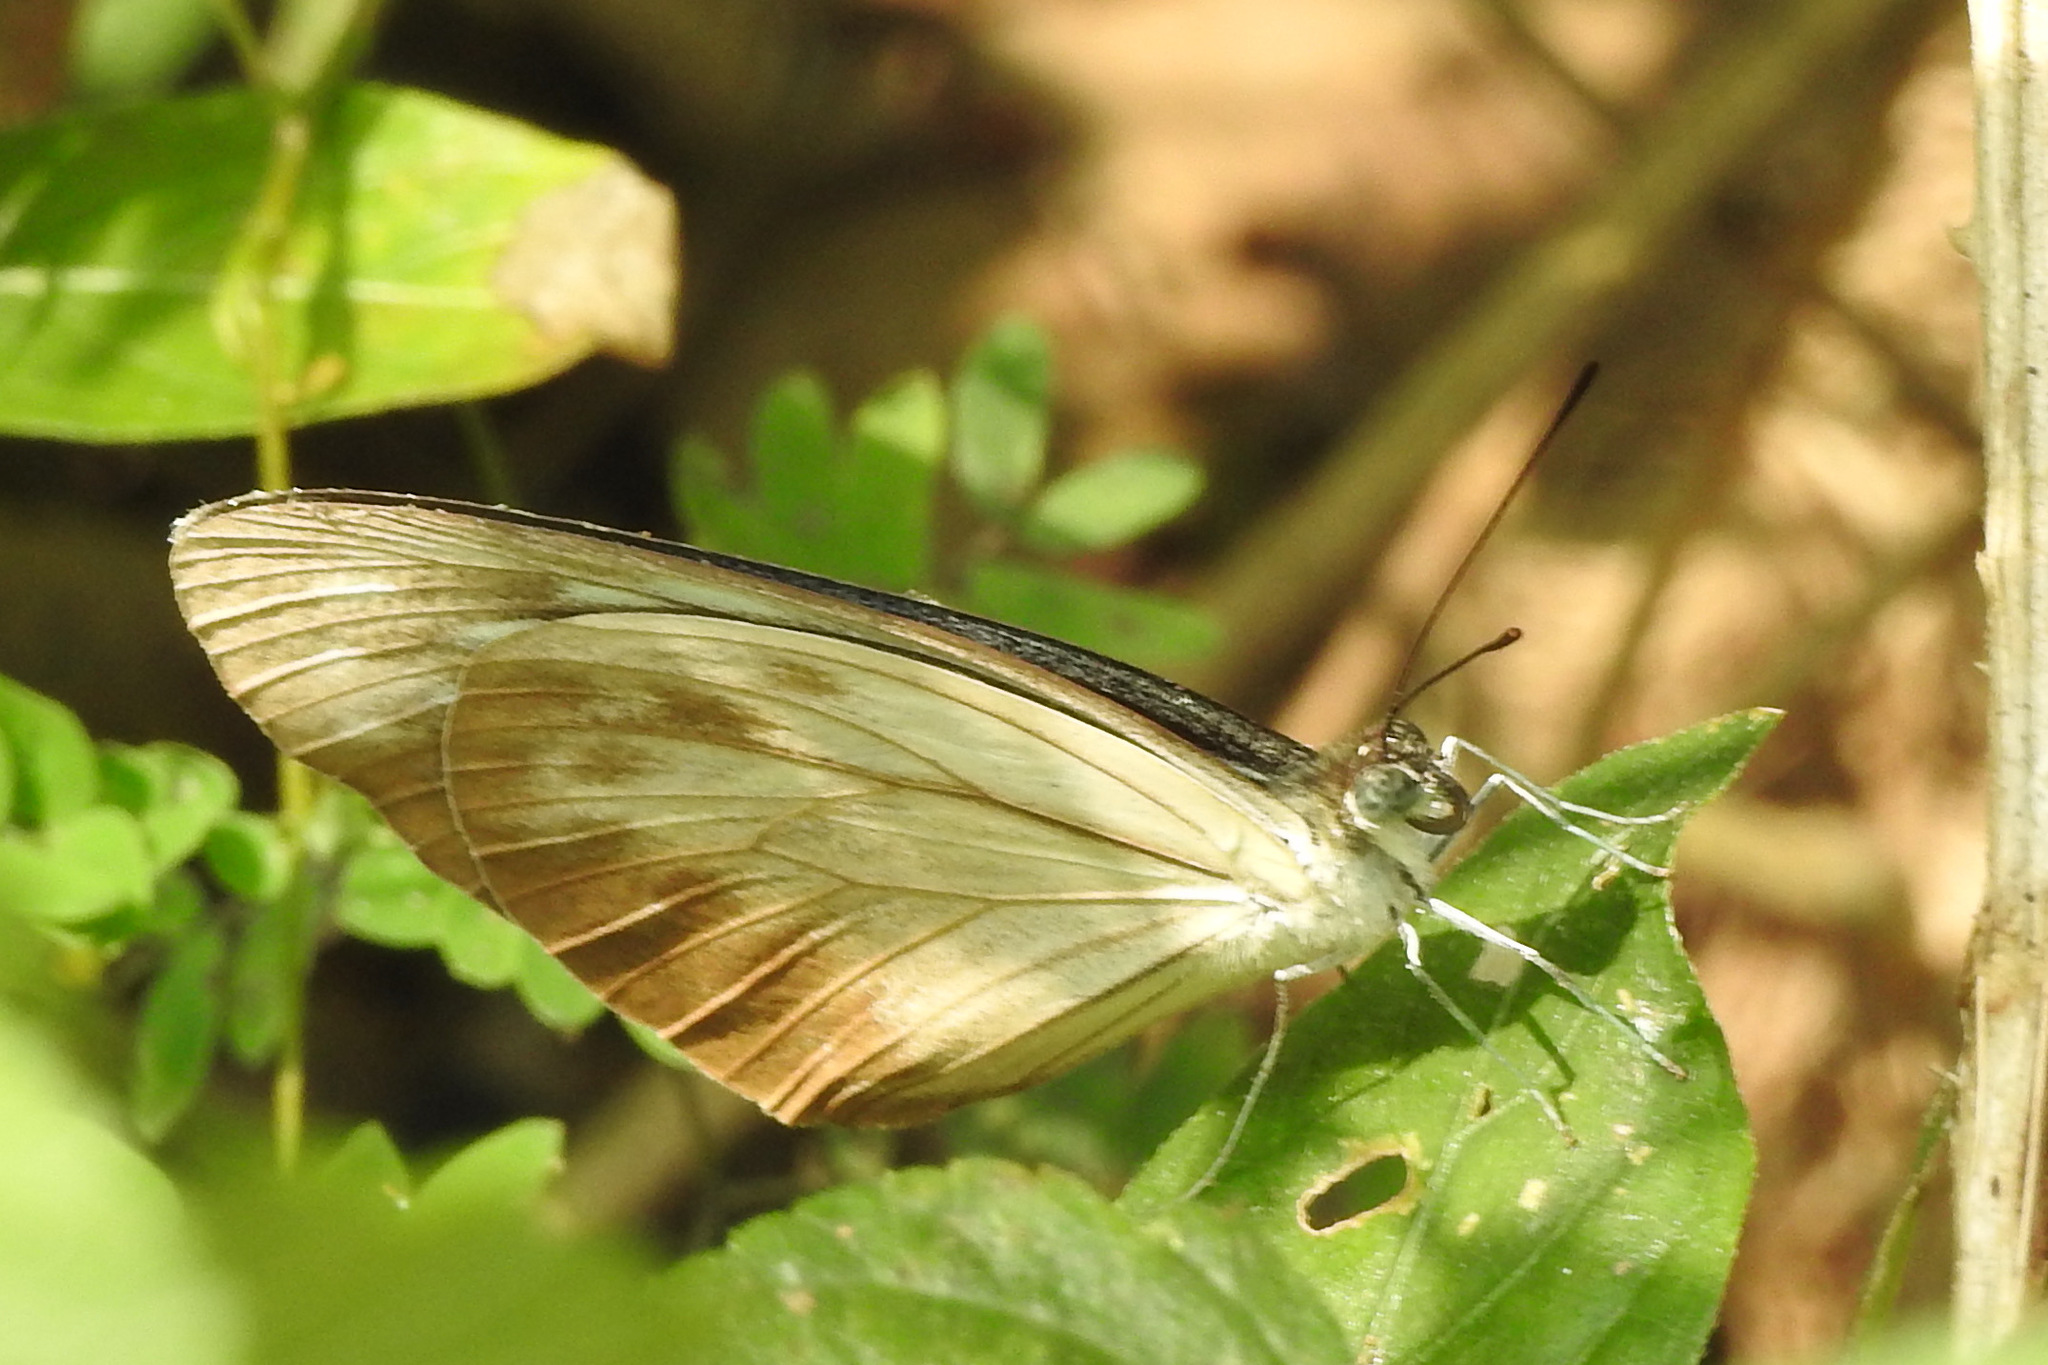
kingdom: Animalia
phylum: Arthropoda
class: Insecta
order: Lepidoptera
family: Pieridae
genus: Pareronia
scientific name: Pareronia hippia
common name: Indian wanderer
